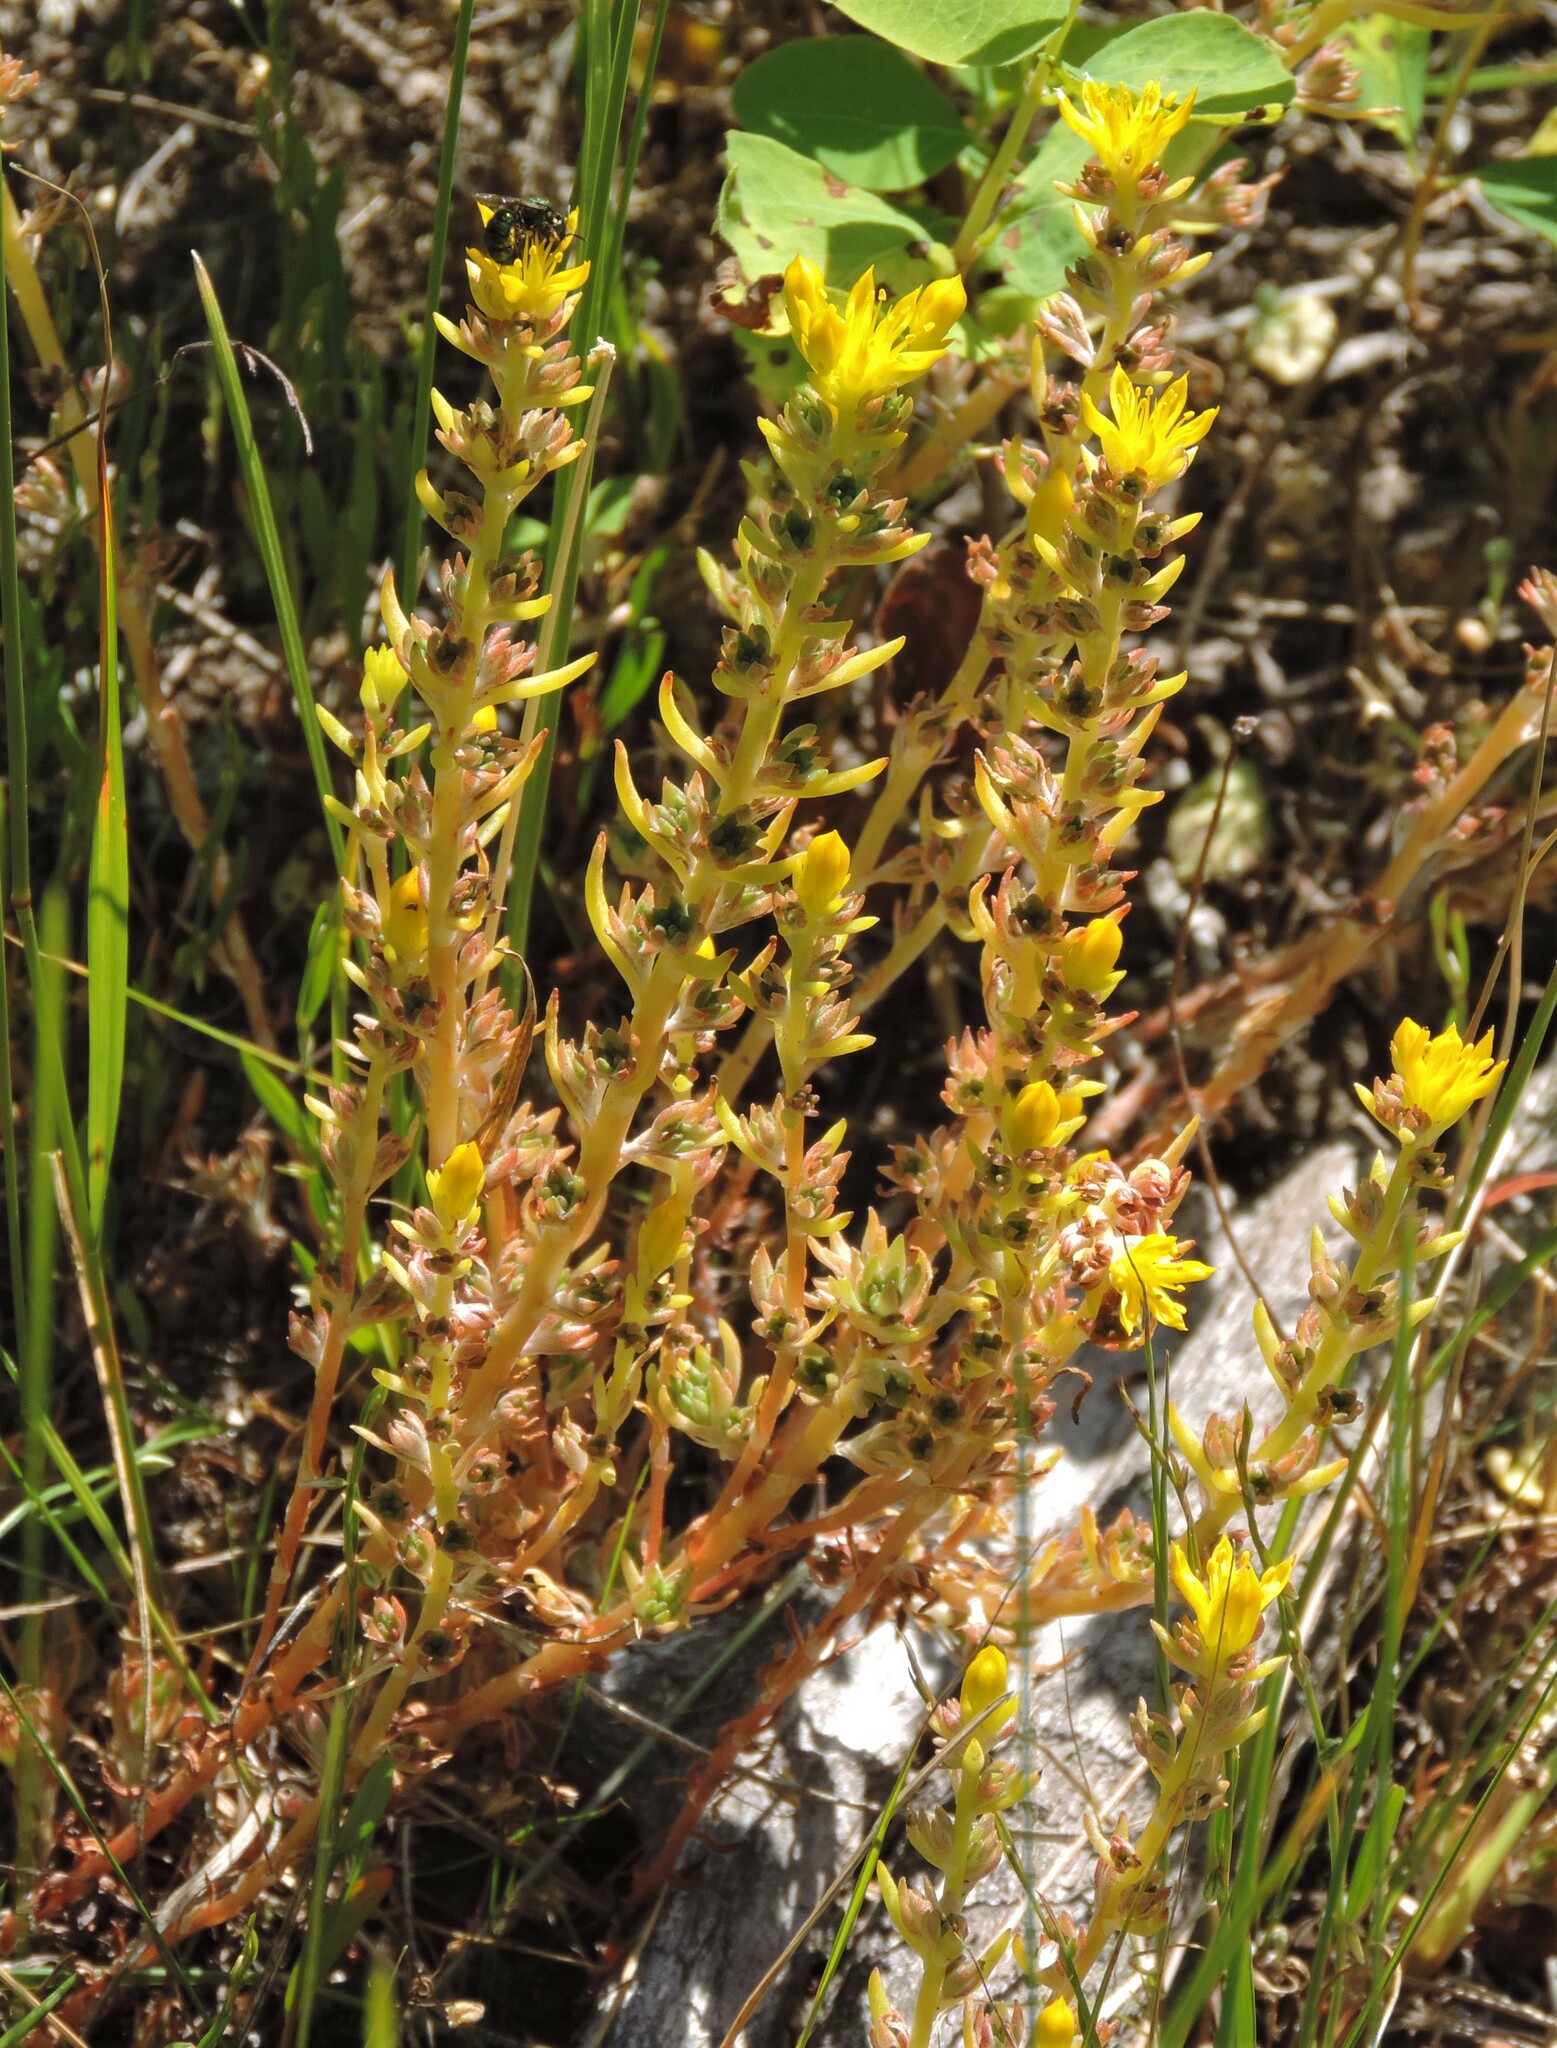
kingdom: Plantae
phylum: Tracheophyta
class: Magnoliopsida
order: Saxifragales
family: Crassulaceae
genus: Sedum
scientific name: Sedum stenopetalum
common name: Narrow-petaled stonecrop
